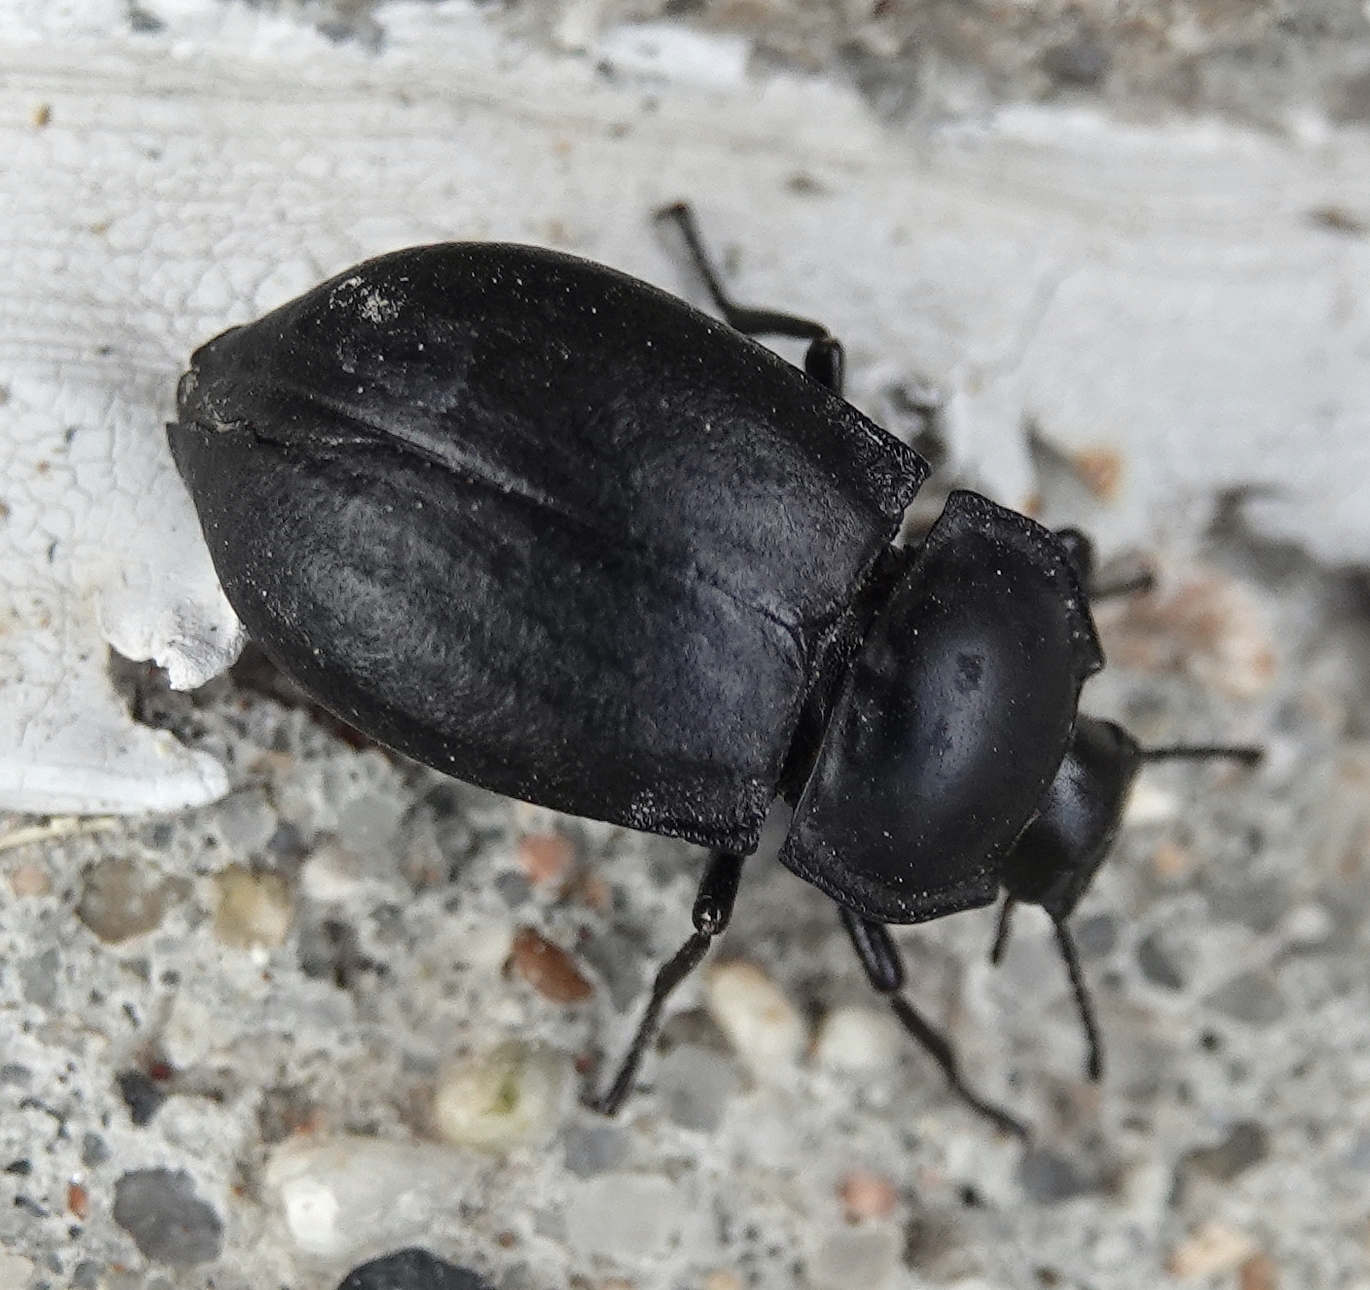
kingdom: Animalia
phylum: Arthropoda
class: Insecta
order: Coleoptera
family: Tenebrionidae
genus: Stenomorpha
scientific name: Stenomorpha polita
